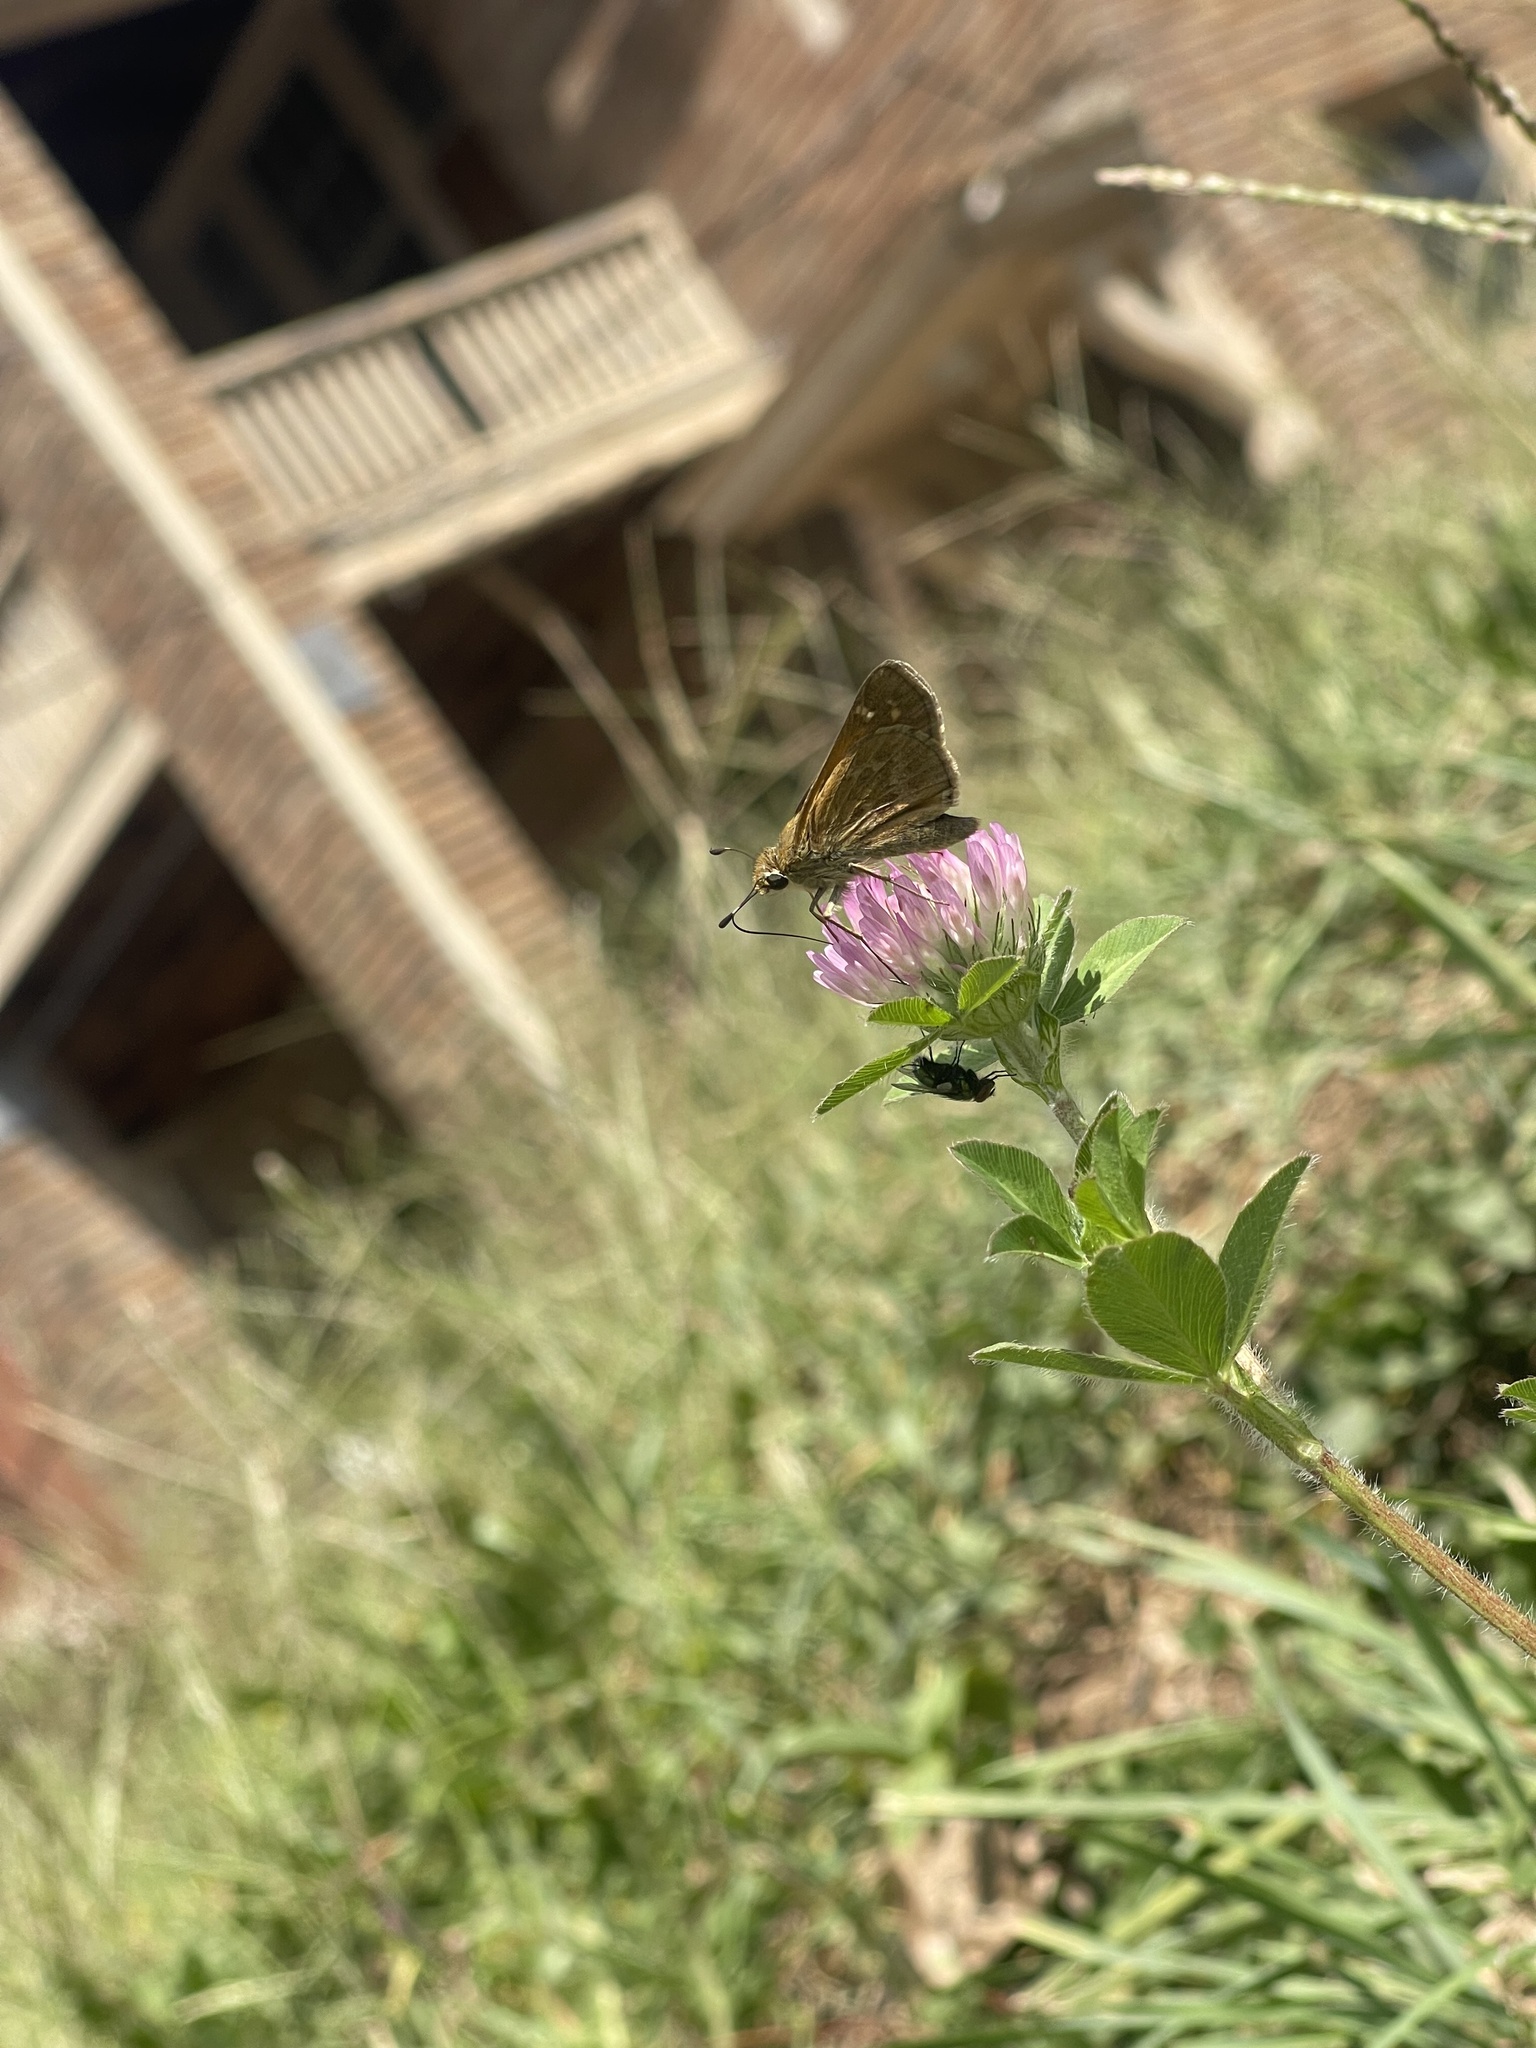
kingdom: Animalia
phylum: Arthropoda
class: Insecta
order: Lepidoptera
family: Hesperiidae
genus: Atalopedes
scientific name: Atalopedes
